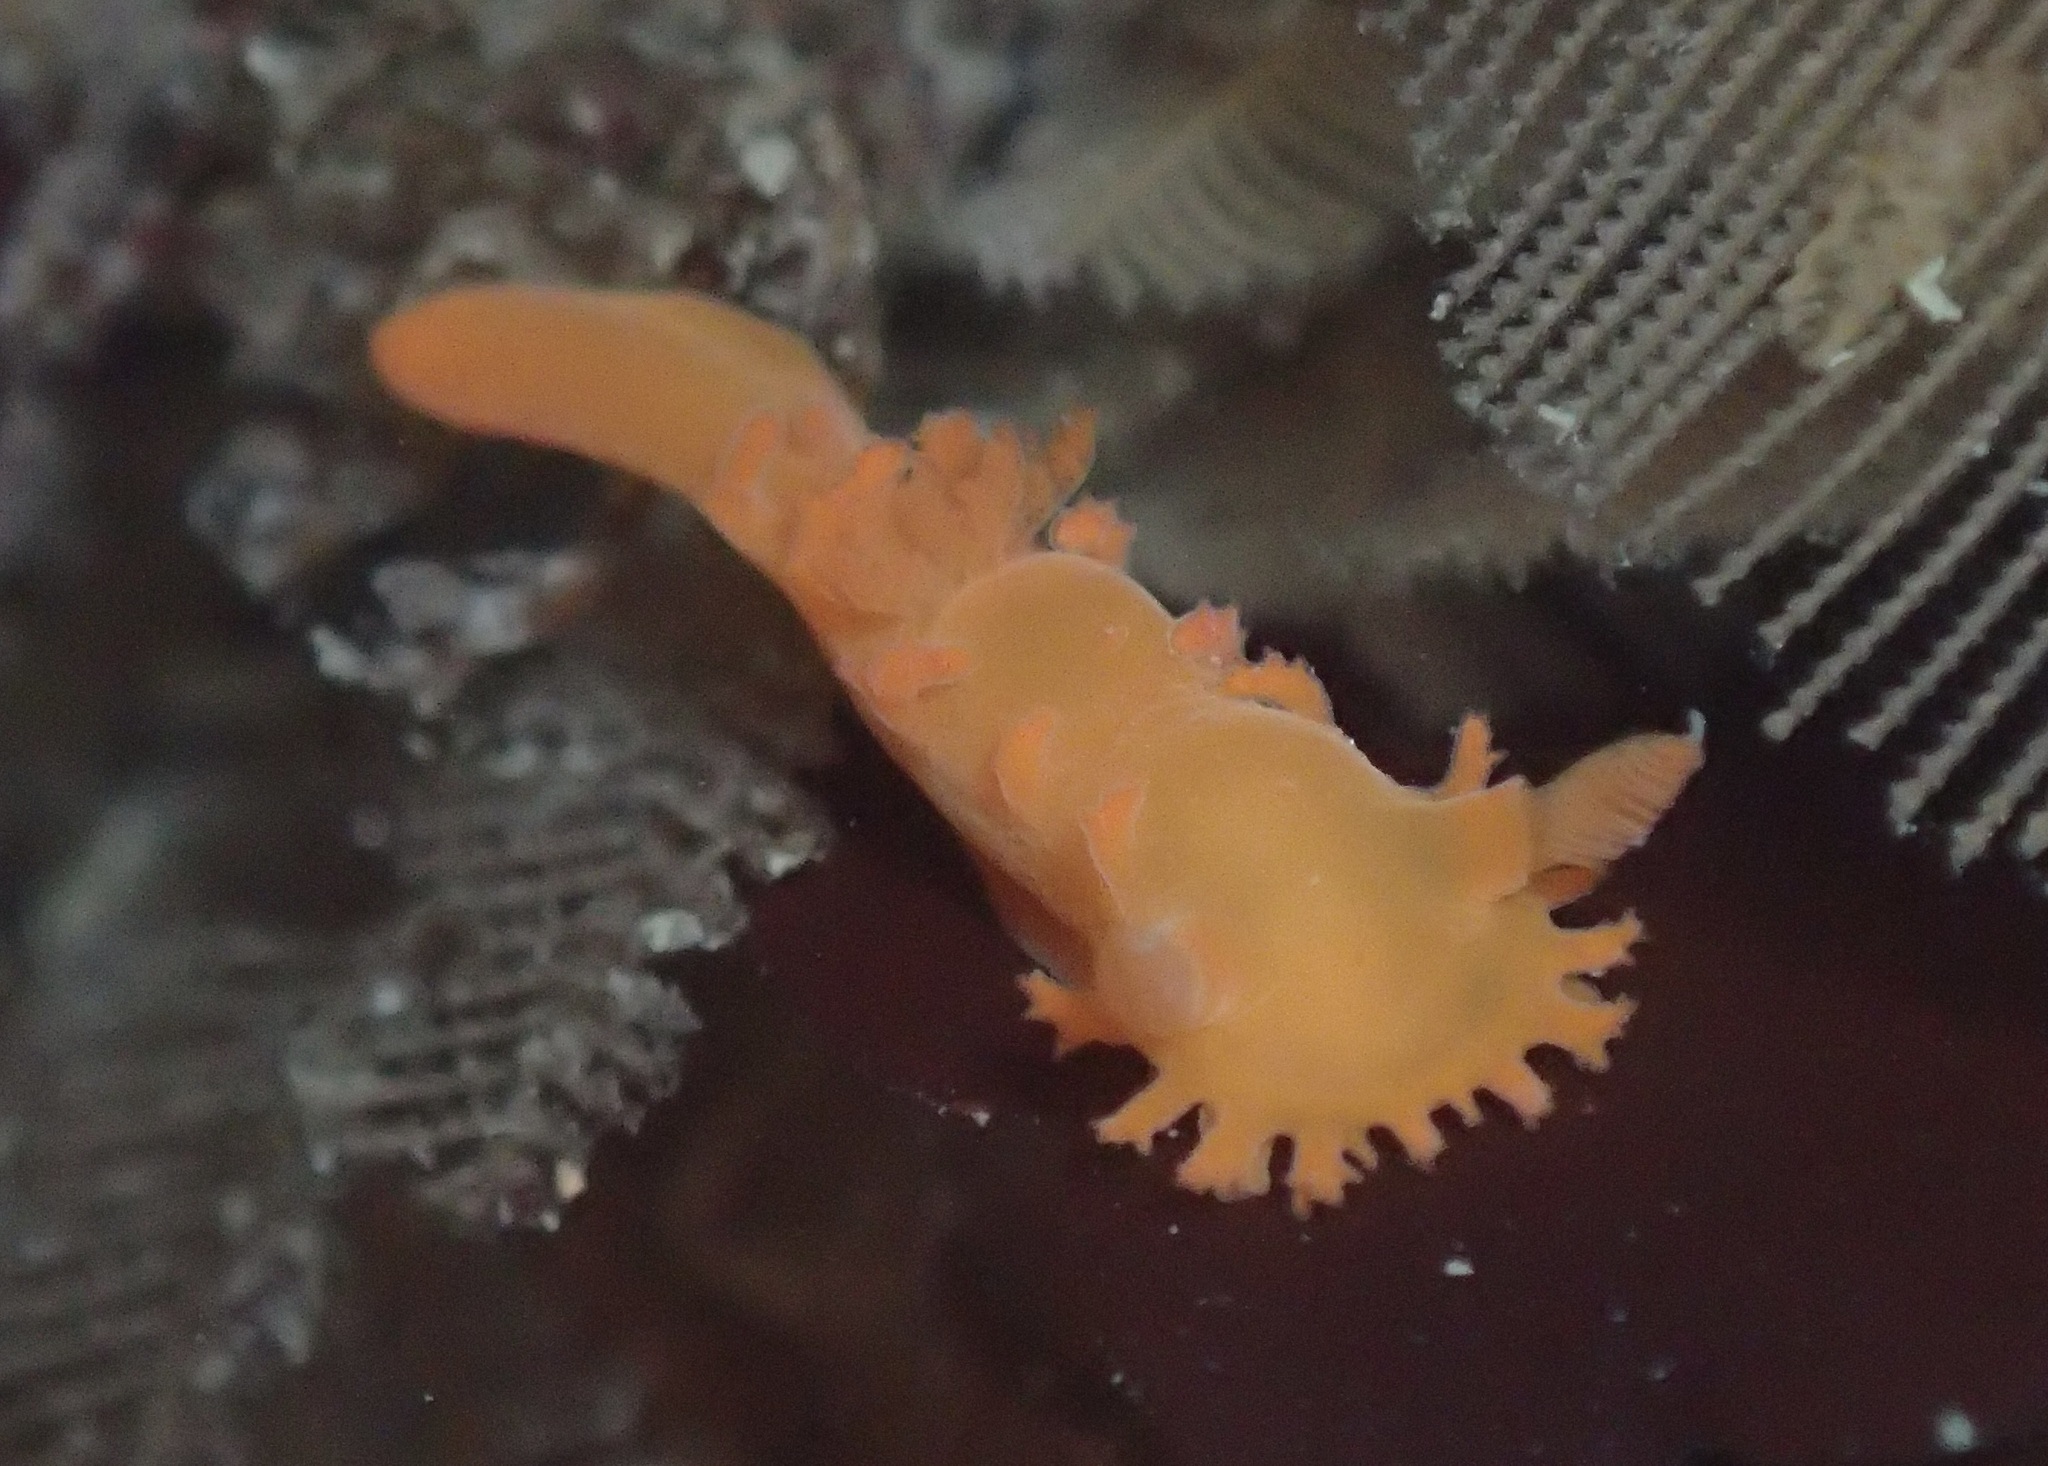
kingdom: Animalia
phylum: Mollusca
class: Gastropoda
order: Nudibranchia
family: Polyceridae
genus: Triopha
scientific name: Triopha maculata
